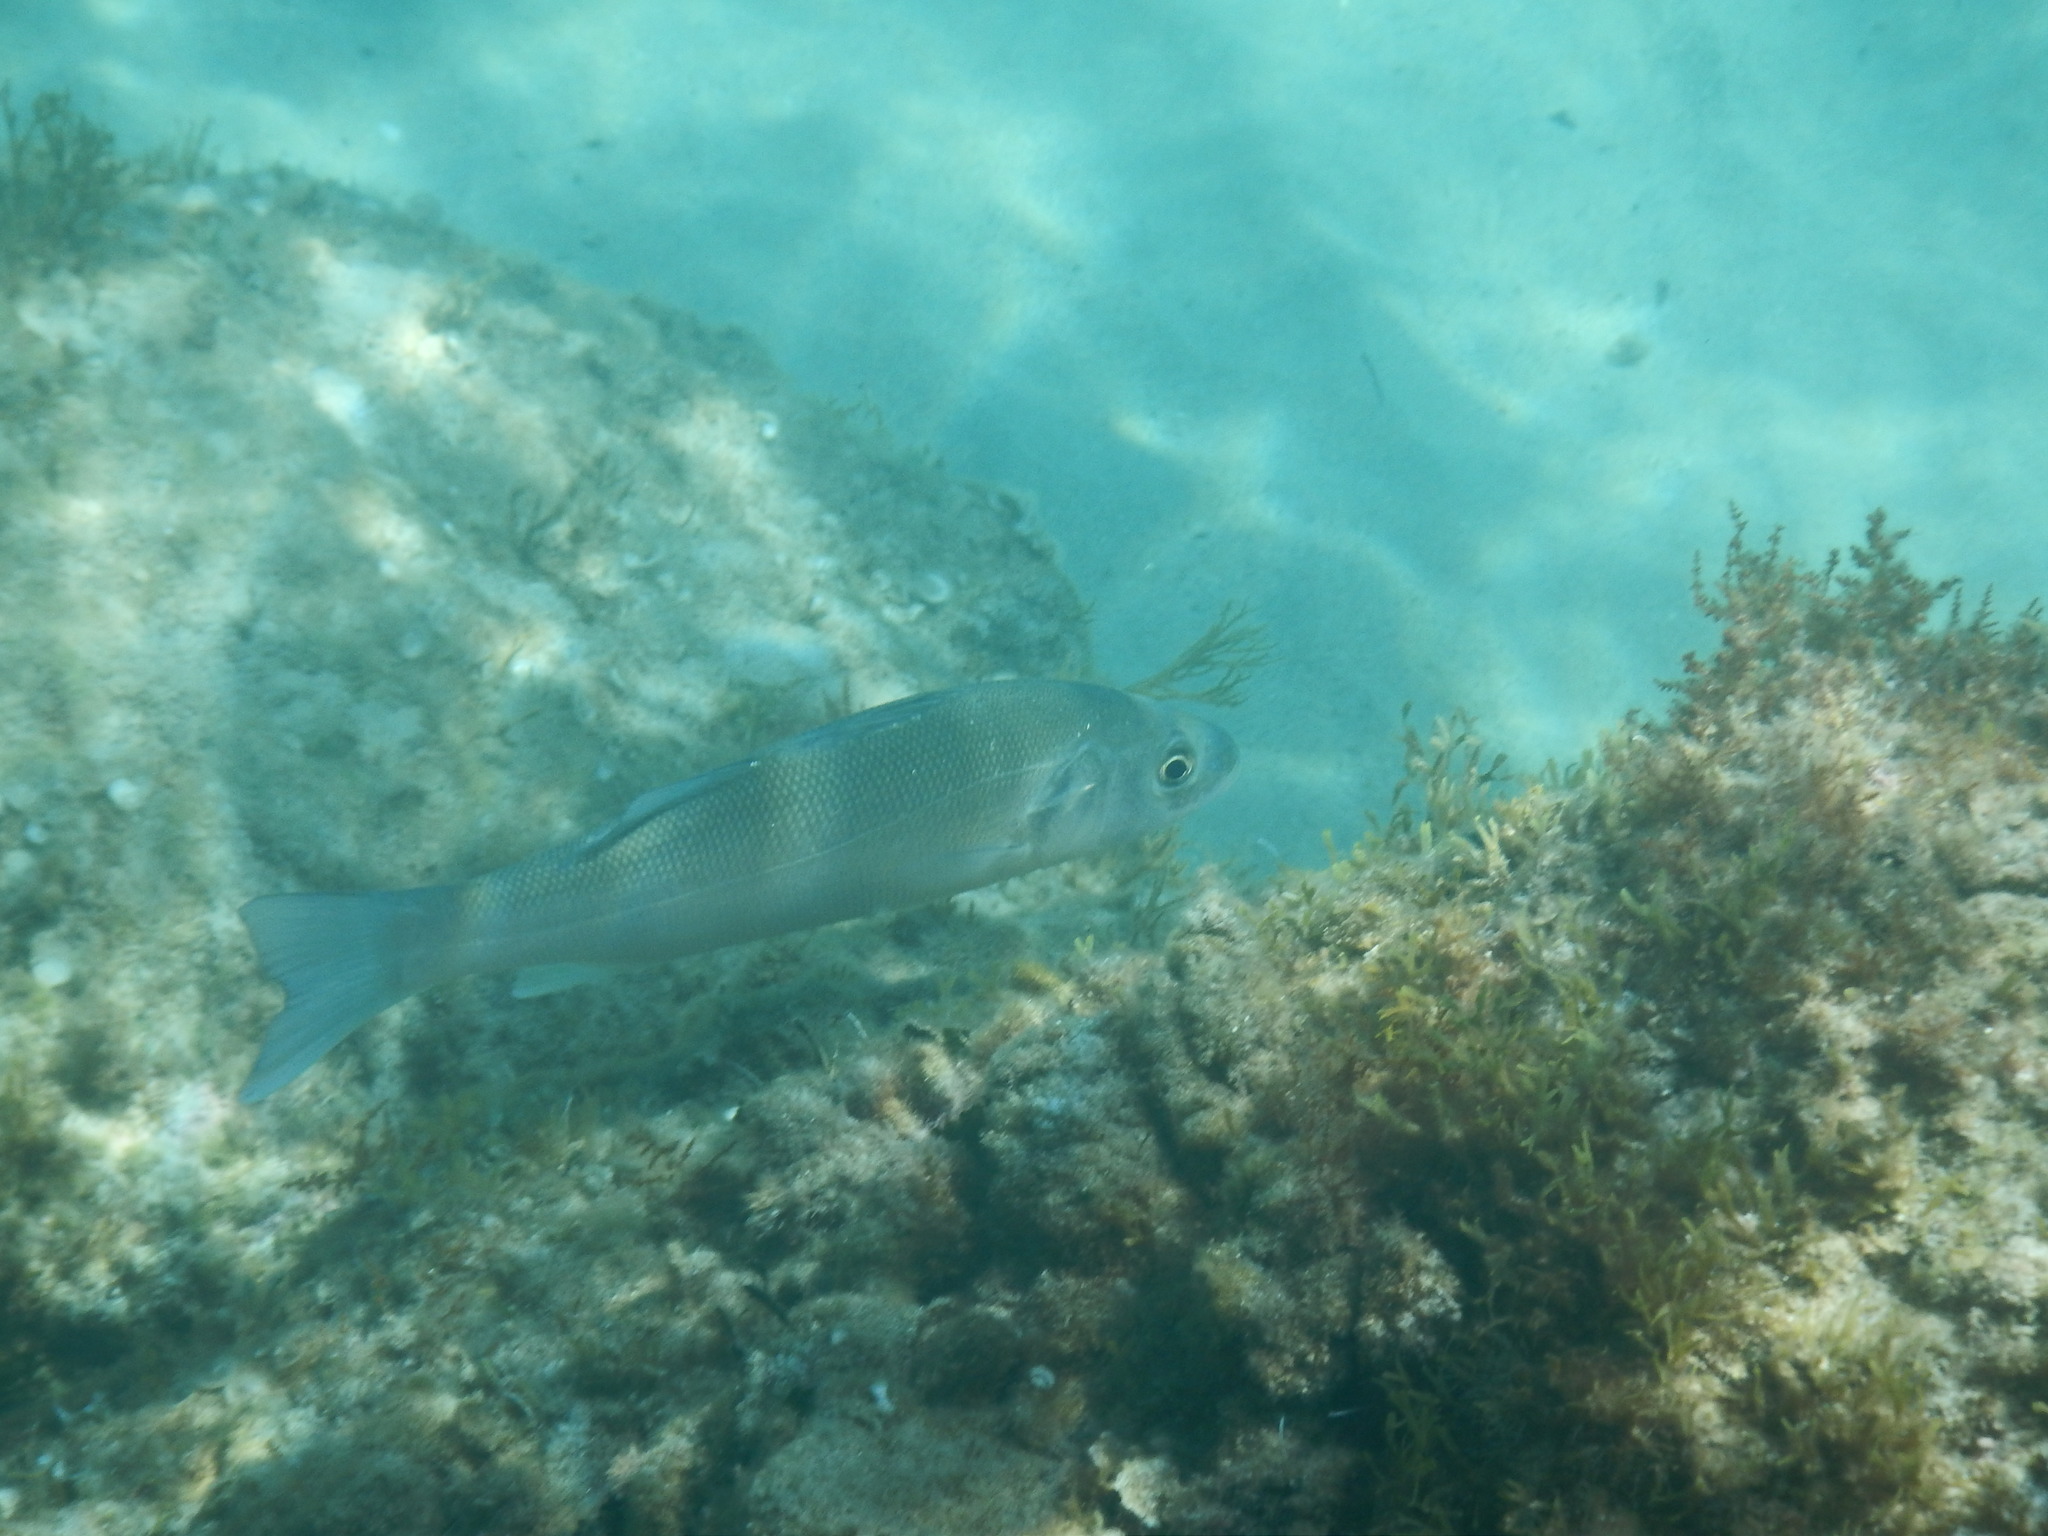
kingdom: Animalia
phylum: Chordata
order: Perciformes
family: Moronidae
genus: Dicentrarchus
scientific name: Dicentrarchus labrax
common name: European seabass
